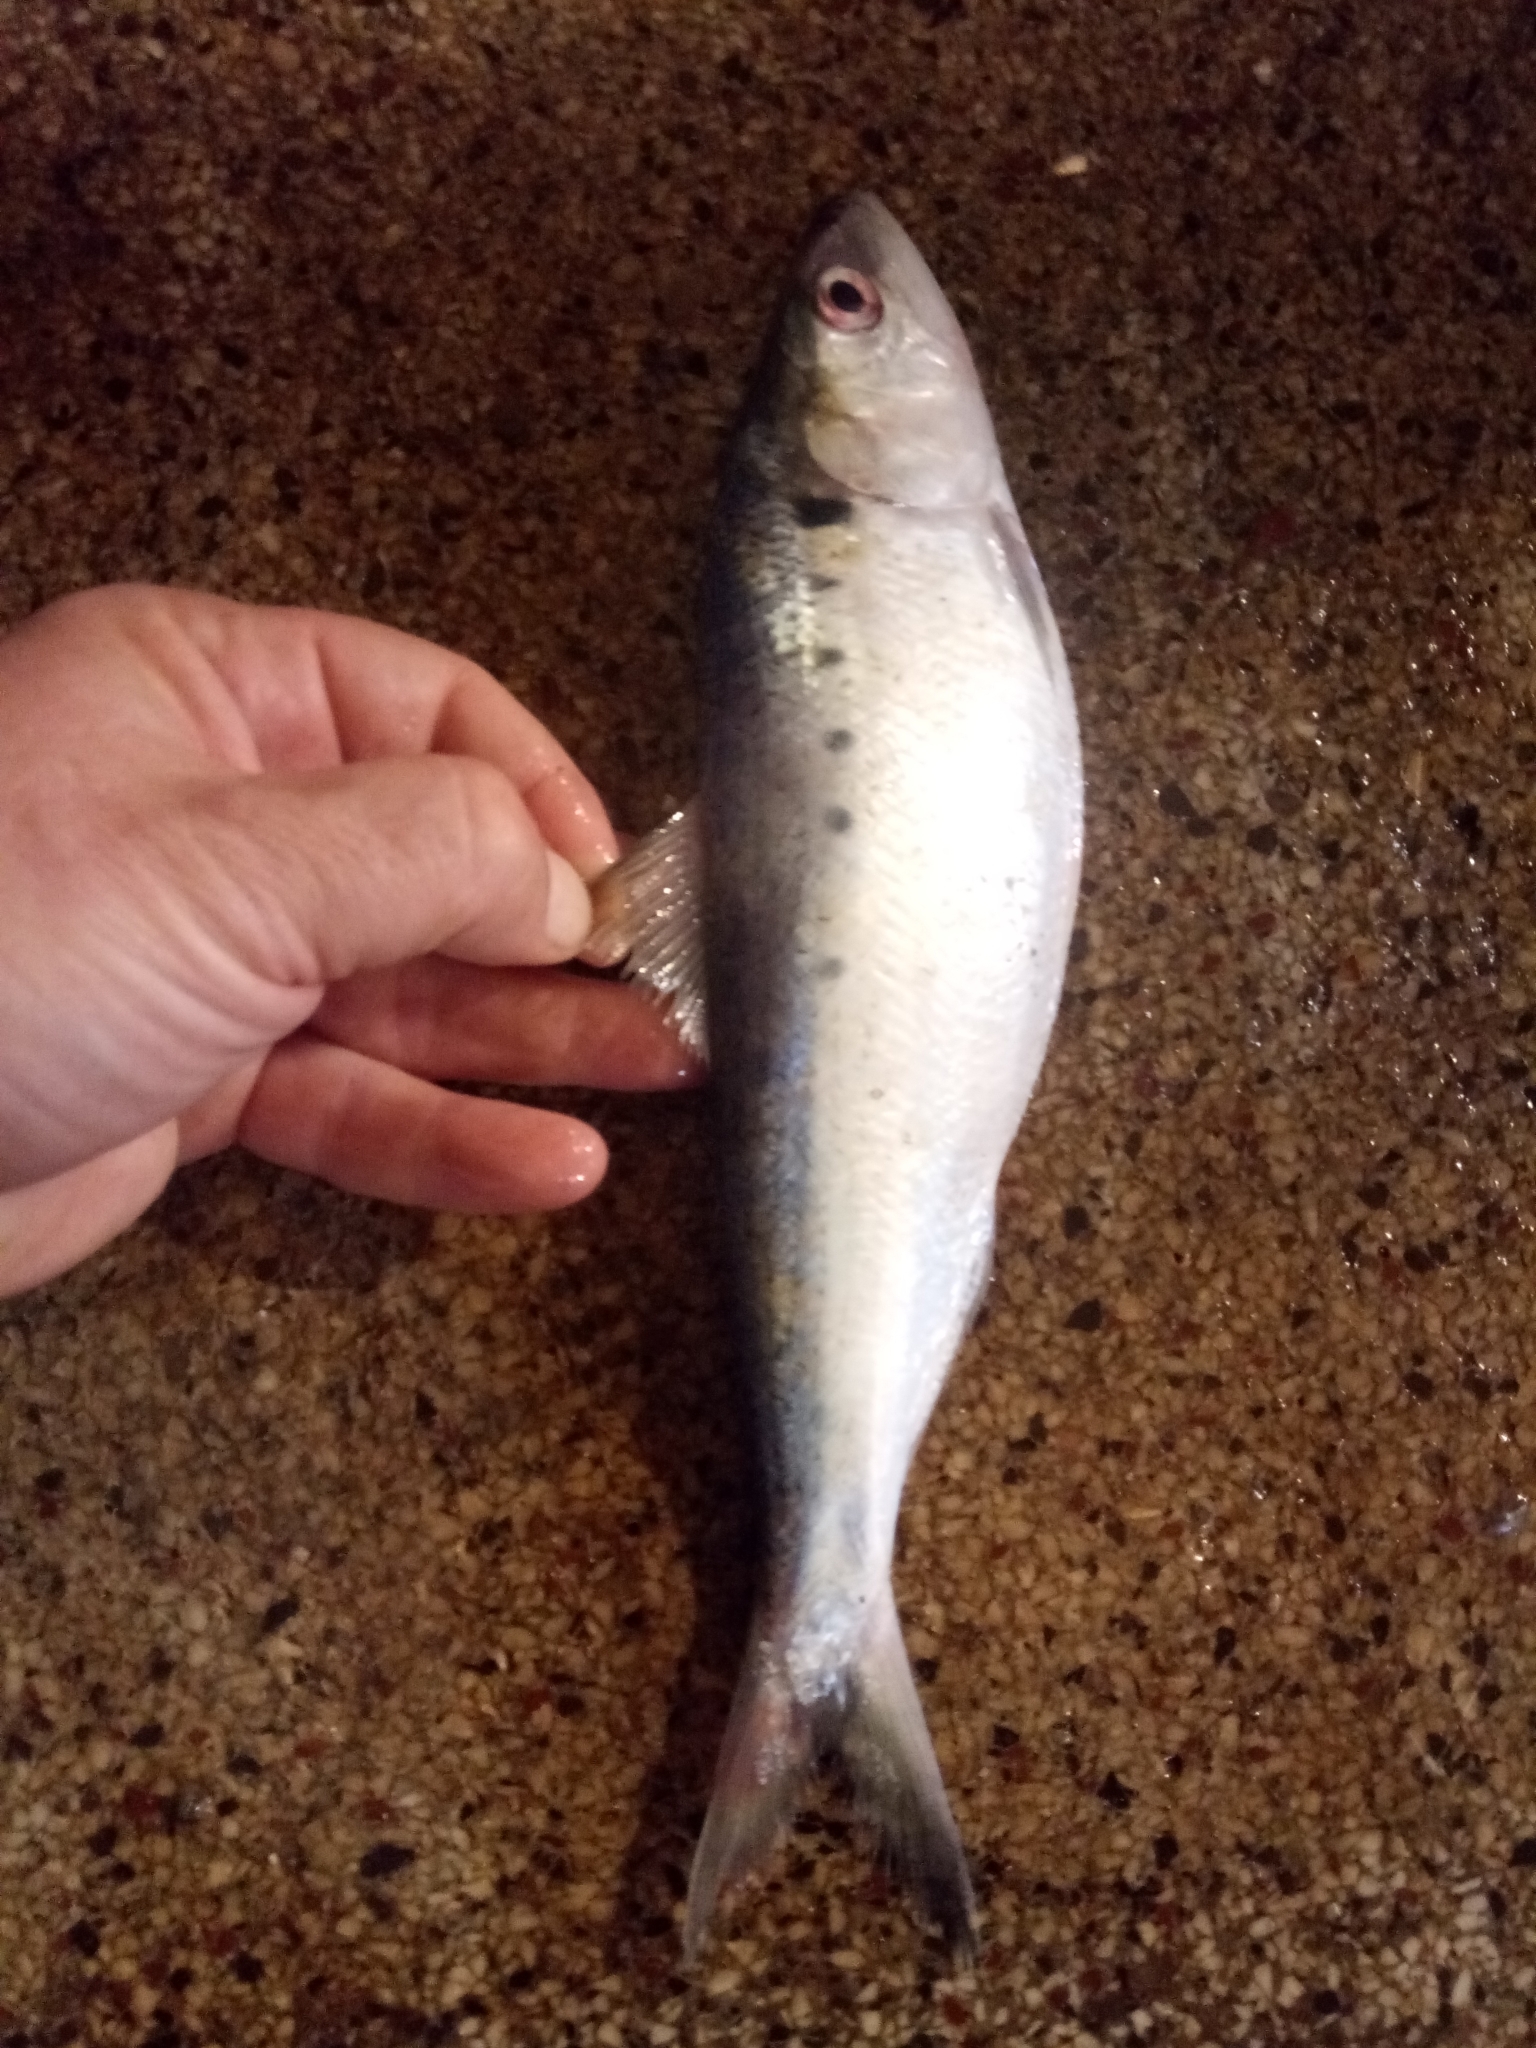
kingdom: Animalia
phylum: Chordata
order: Clupeiformes
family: Clupeidae
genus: Alosa
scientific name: Alosa algeriensis
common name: North african shad
